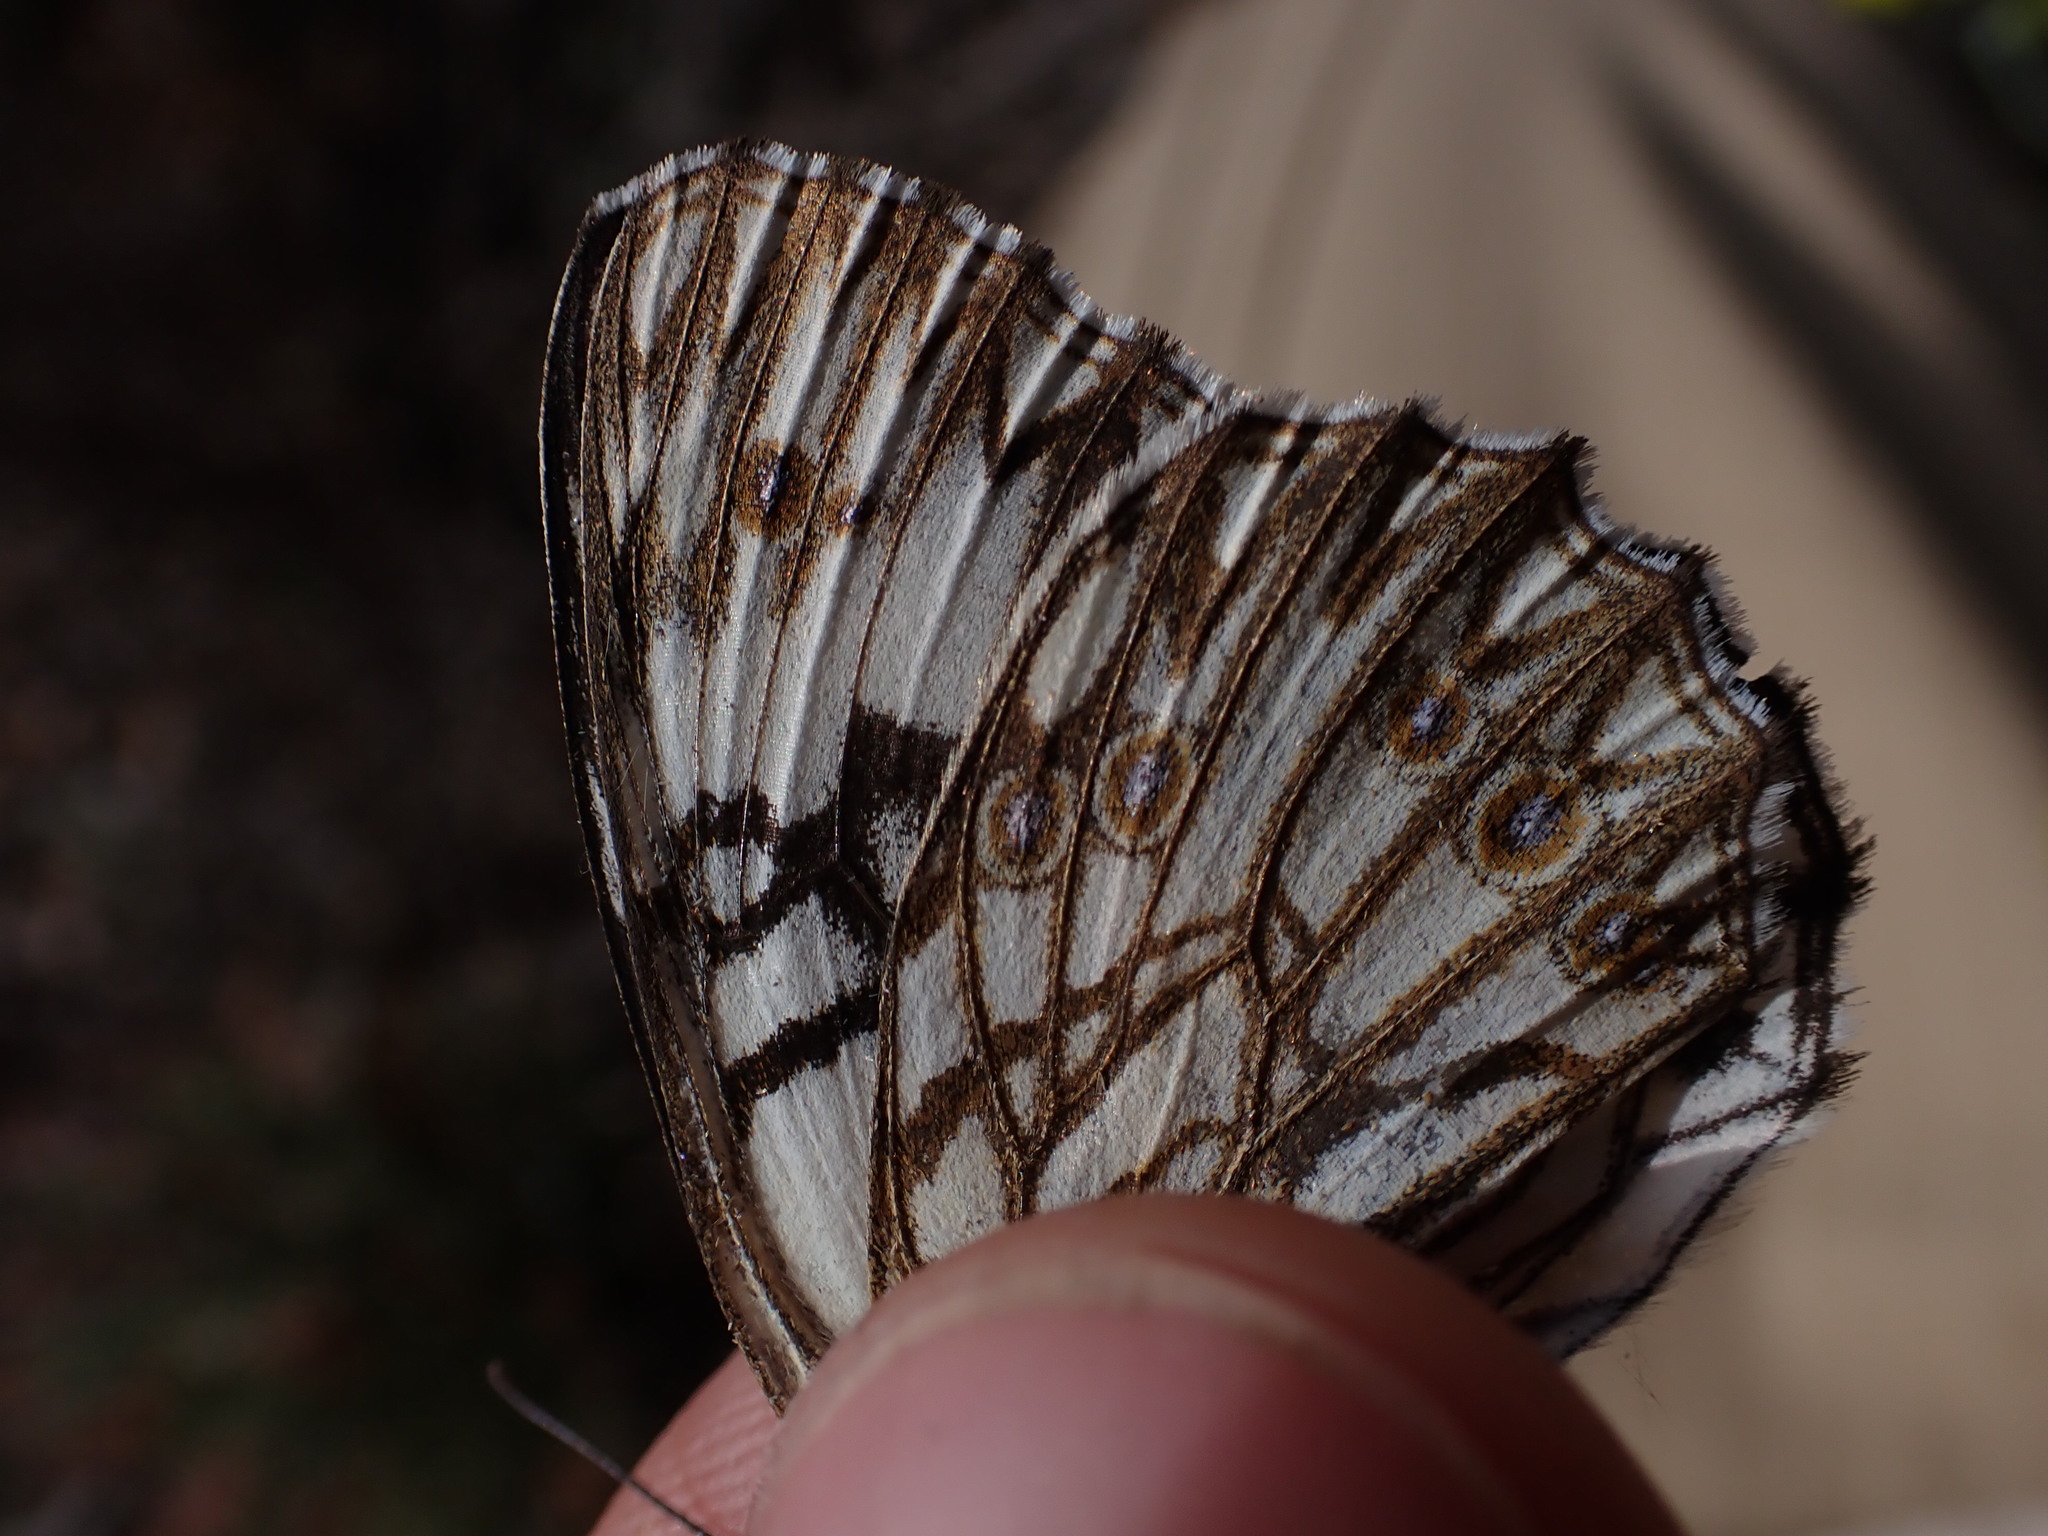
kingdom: Animalia
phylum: Arthropoda
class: Insecta
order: Lepidoptera
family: Nymphalidae
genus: Melanargia
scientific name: Melanargia occitanica
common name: Western marbled white
